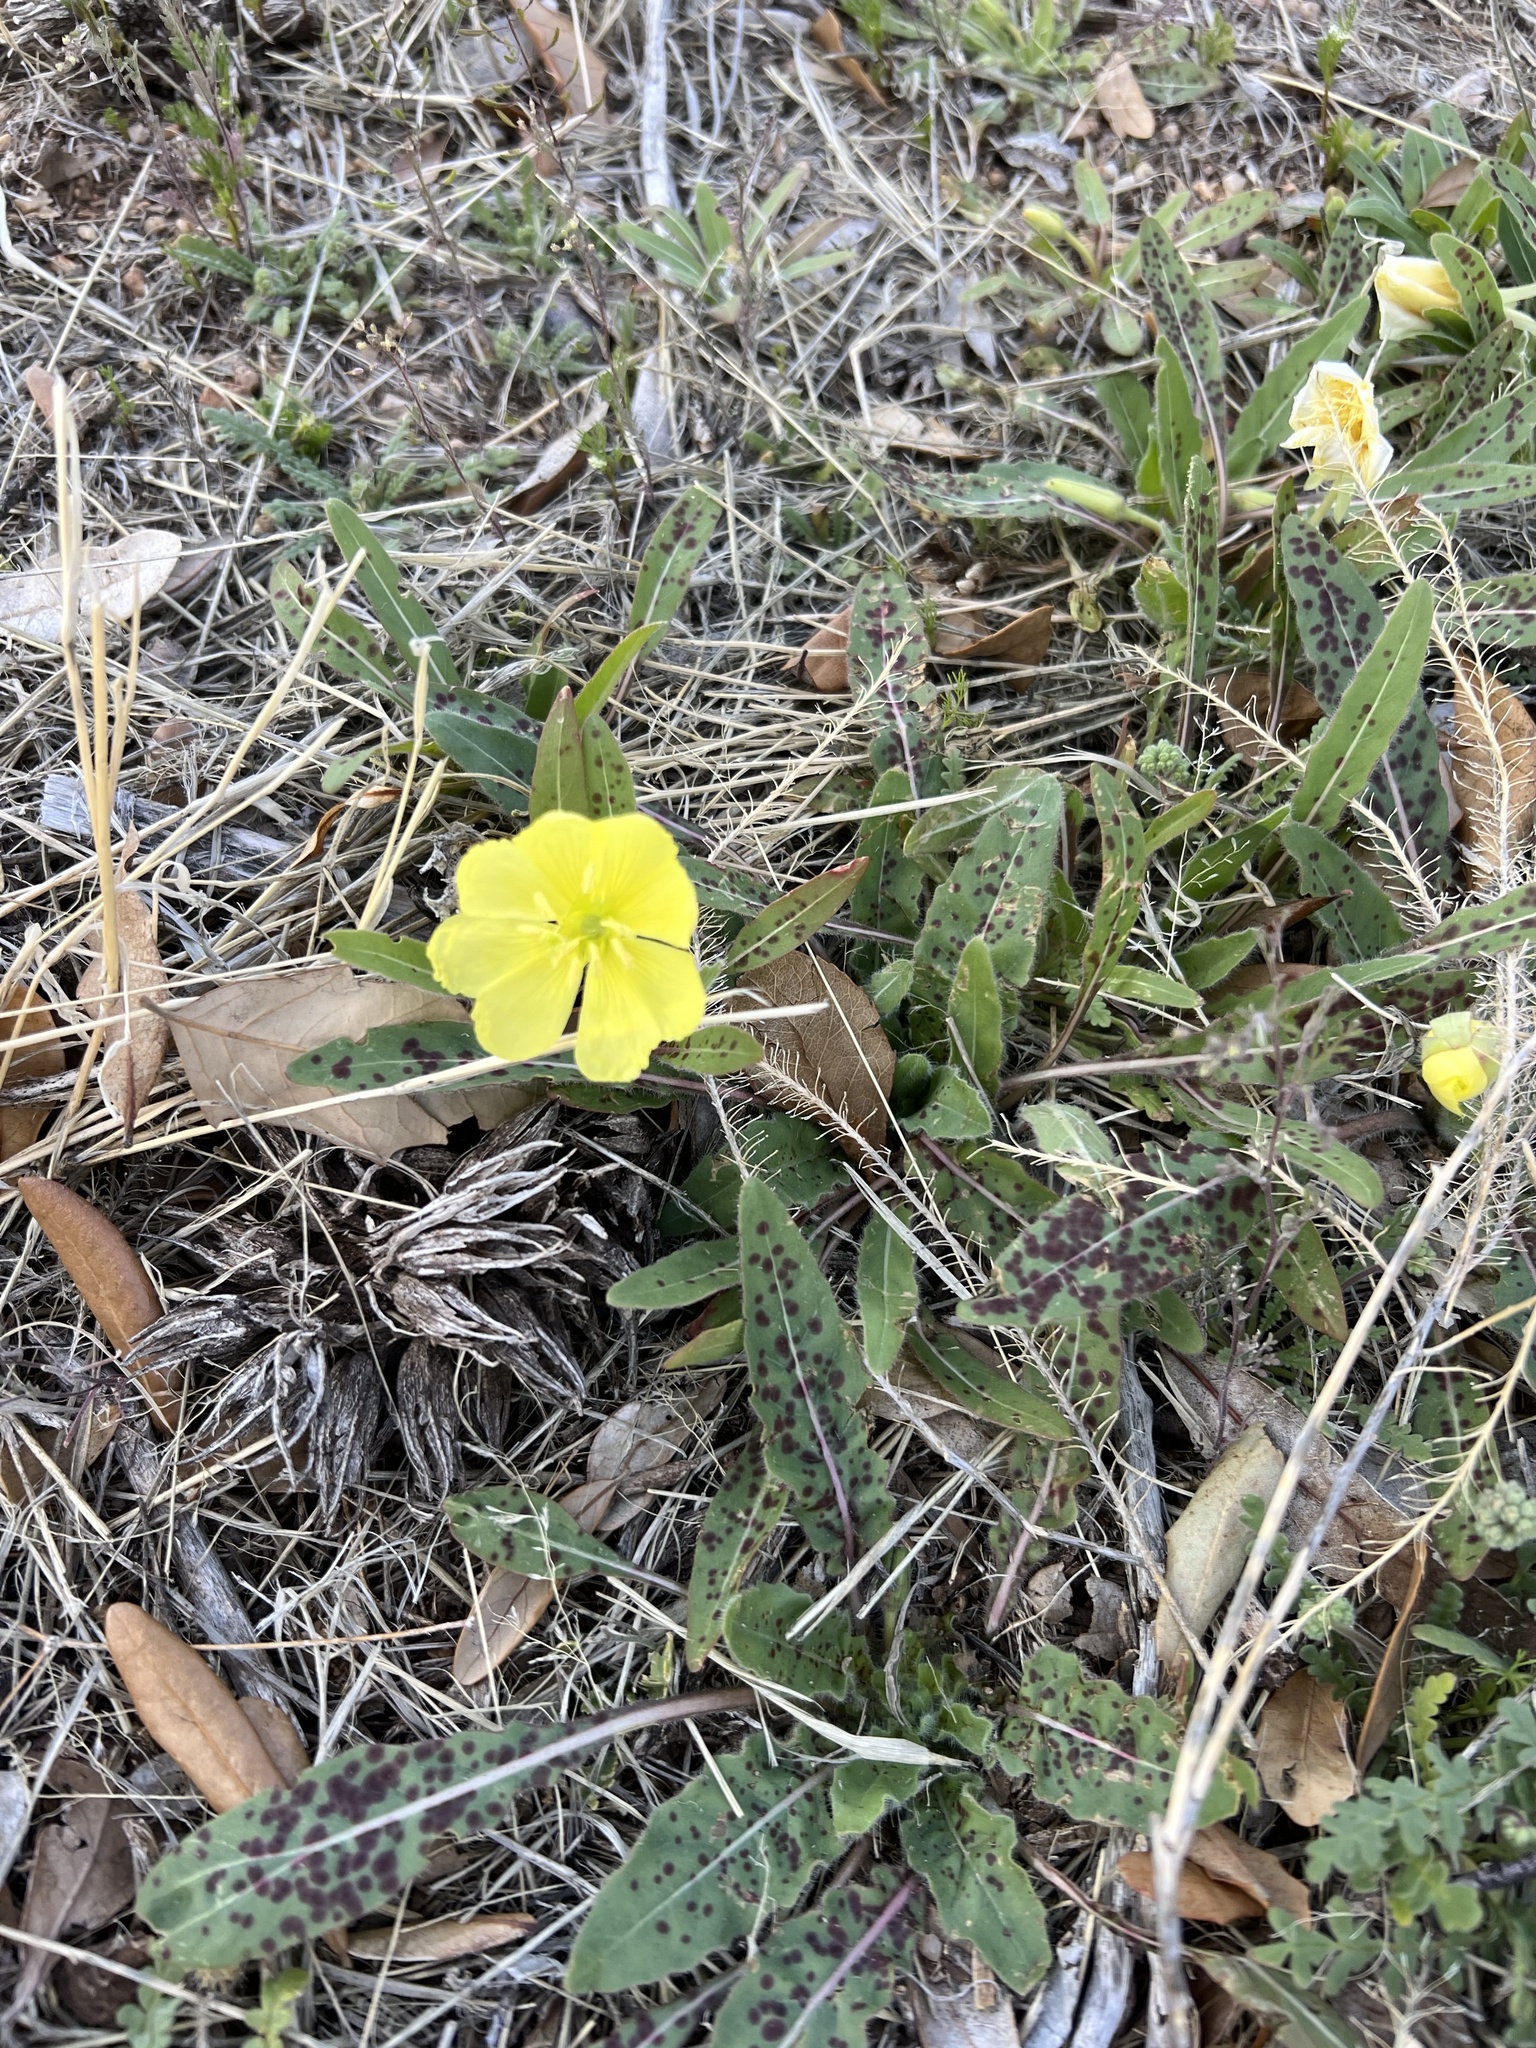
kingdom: Plantae
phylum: Tracheophyta
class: Magnoliopsida
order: Myrtales
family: Onagraceae
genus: Oenothera
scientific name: Oenothera primiveris
